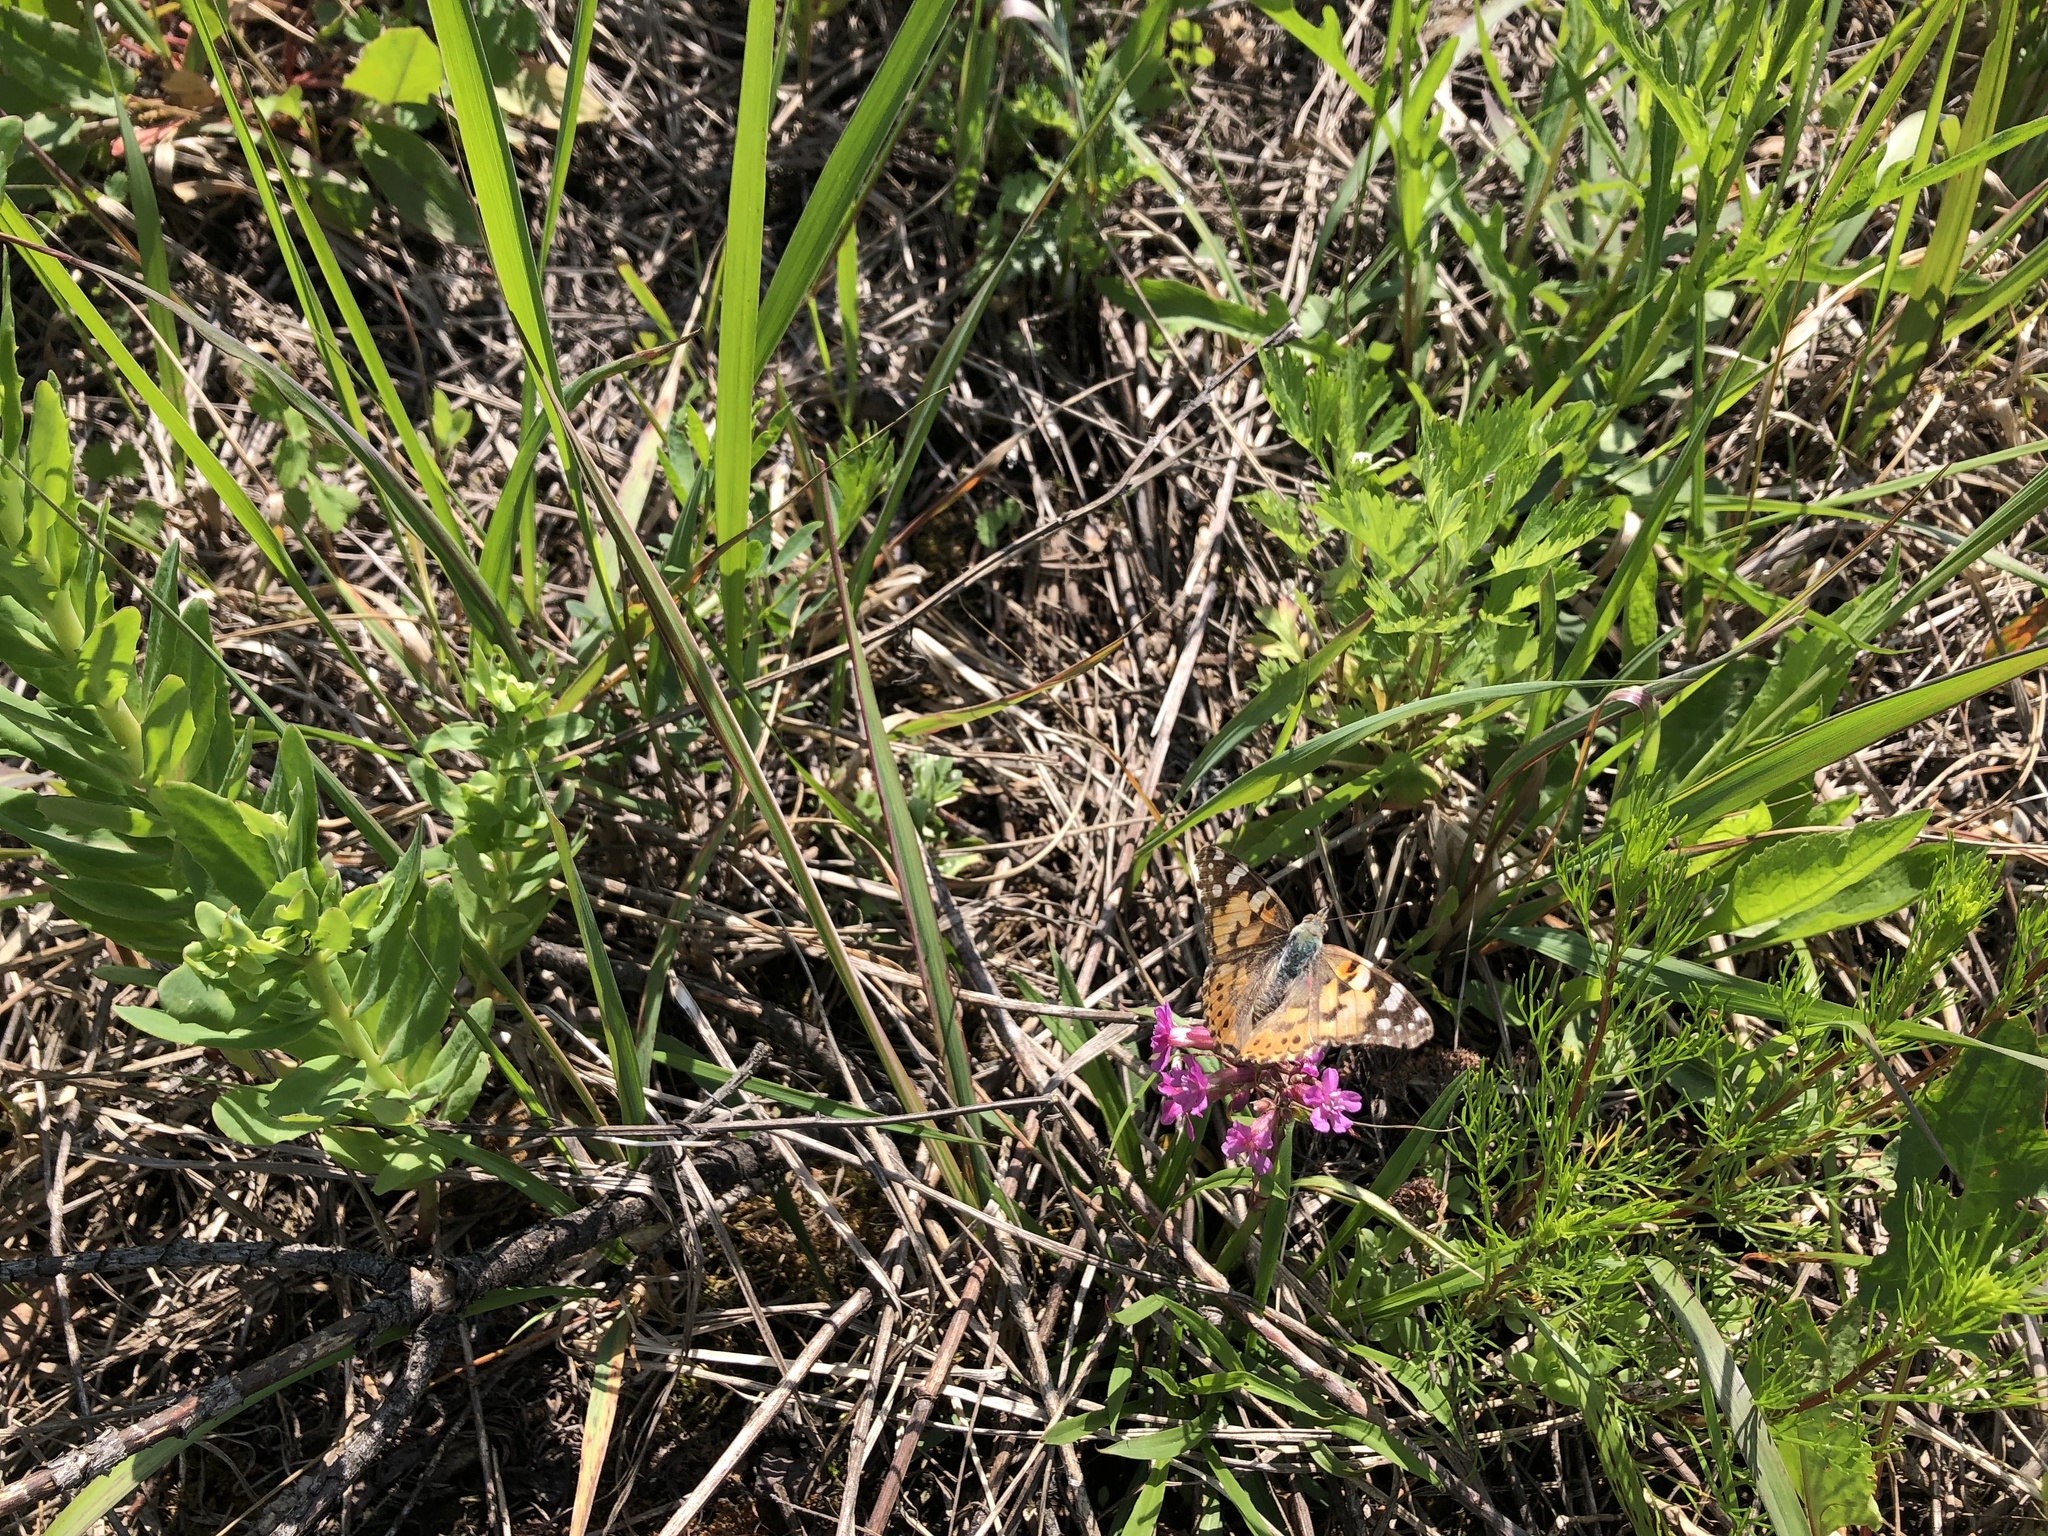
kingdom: Animalia
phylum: Arthropoda
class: Insecta
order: Lepidoptera
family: Nymphalidae
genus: Vanessa
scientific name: Vanessa cardui
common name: Painted lady
